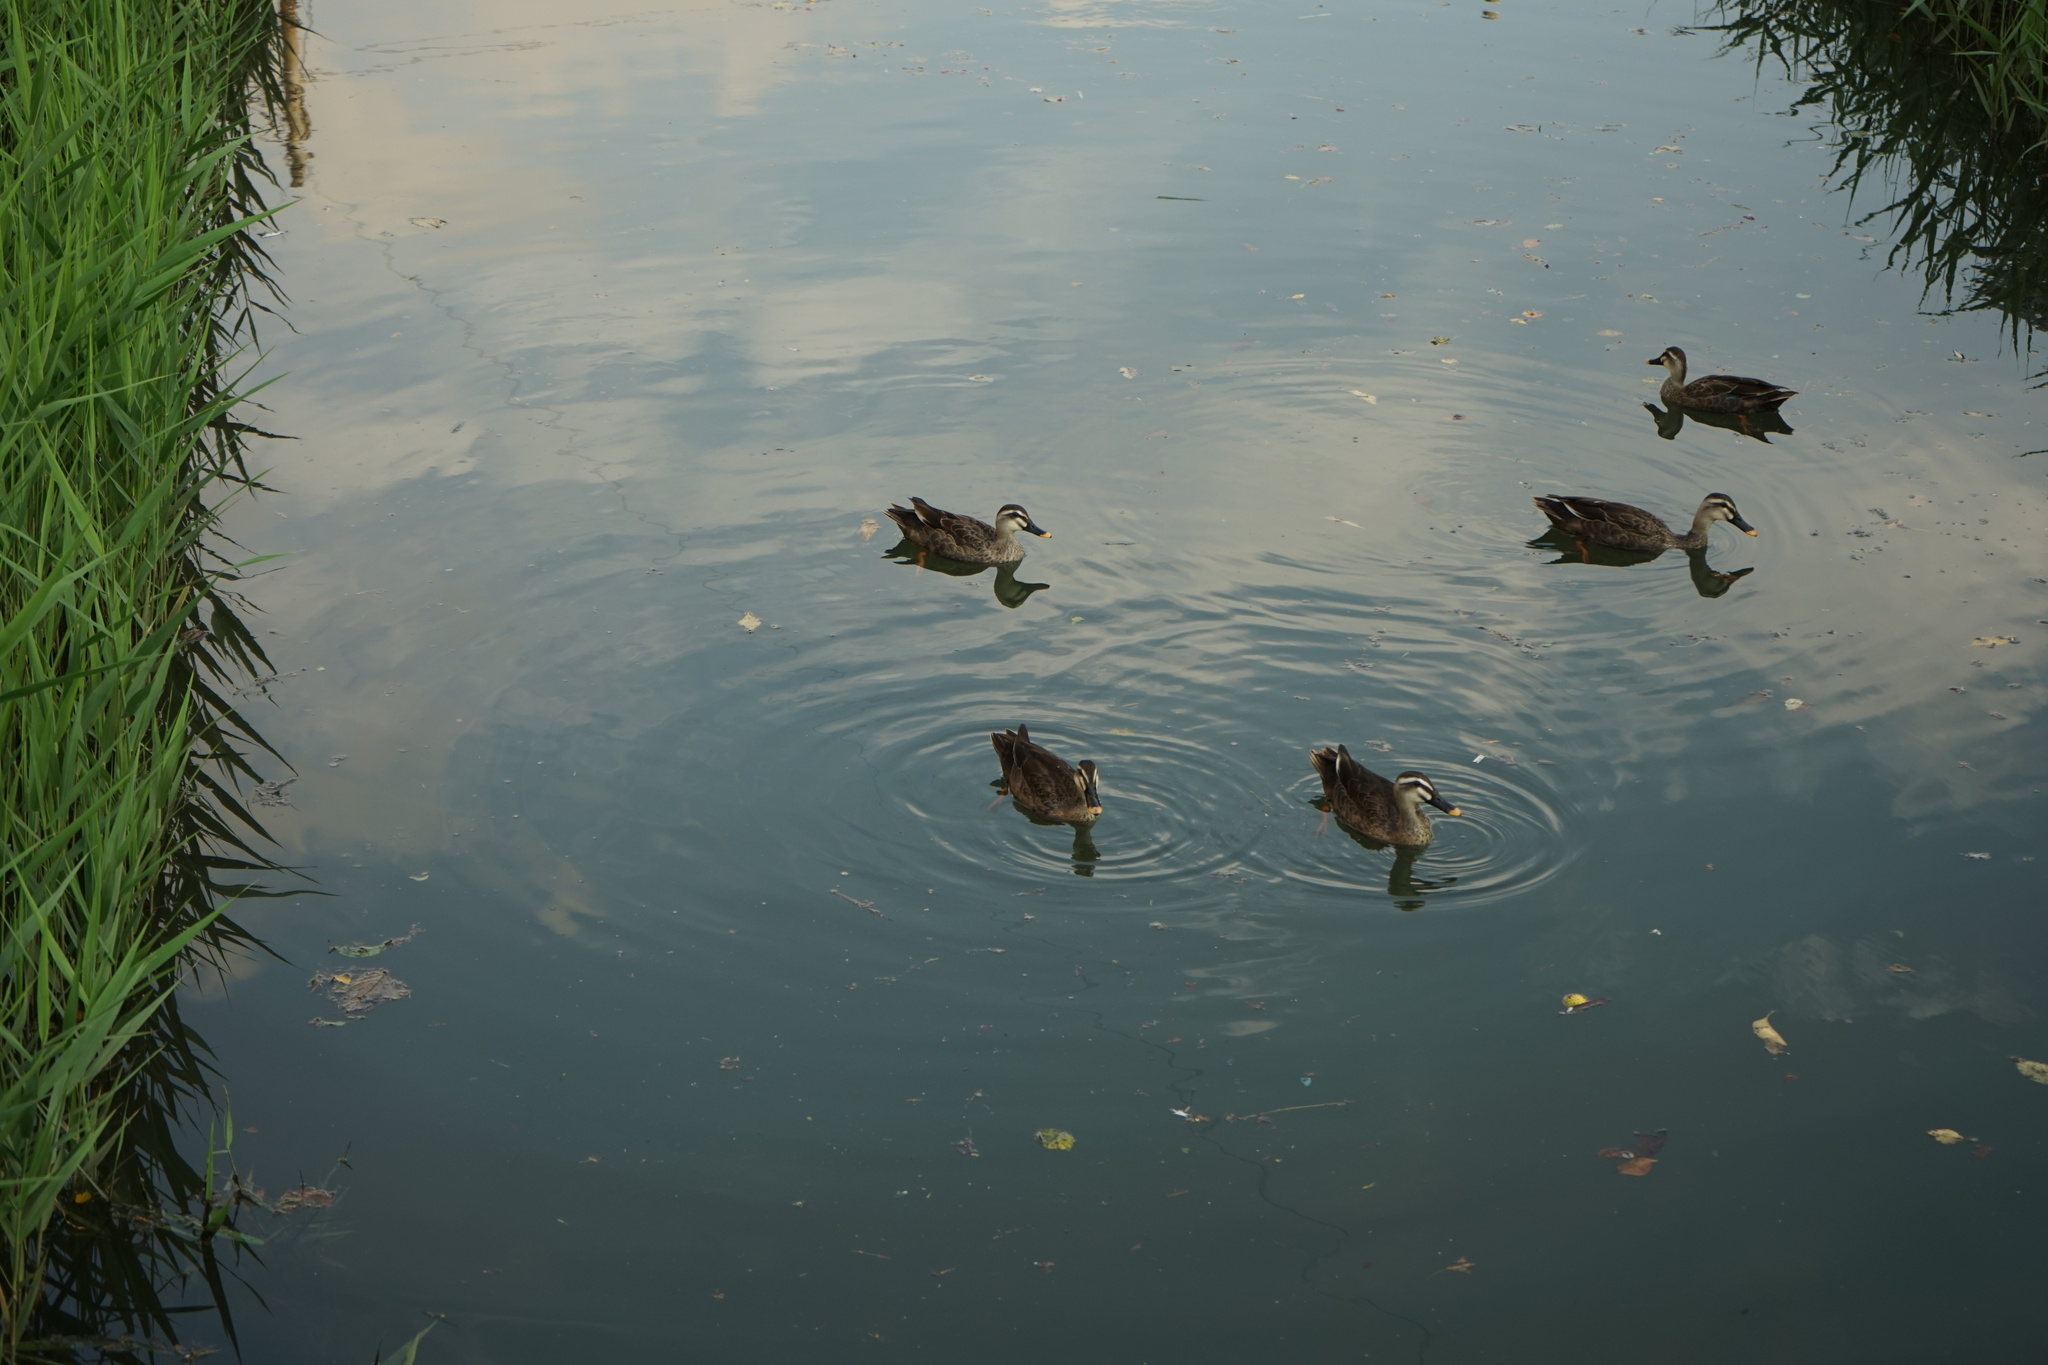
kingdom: Animalia
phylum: Chordata
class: Aves
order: Anseriformes
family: Anatidae
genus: Anas
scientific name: Anas zonorhyncha
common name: Eastern spot-billed duck
